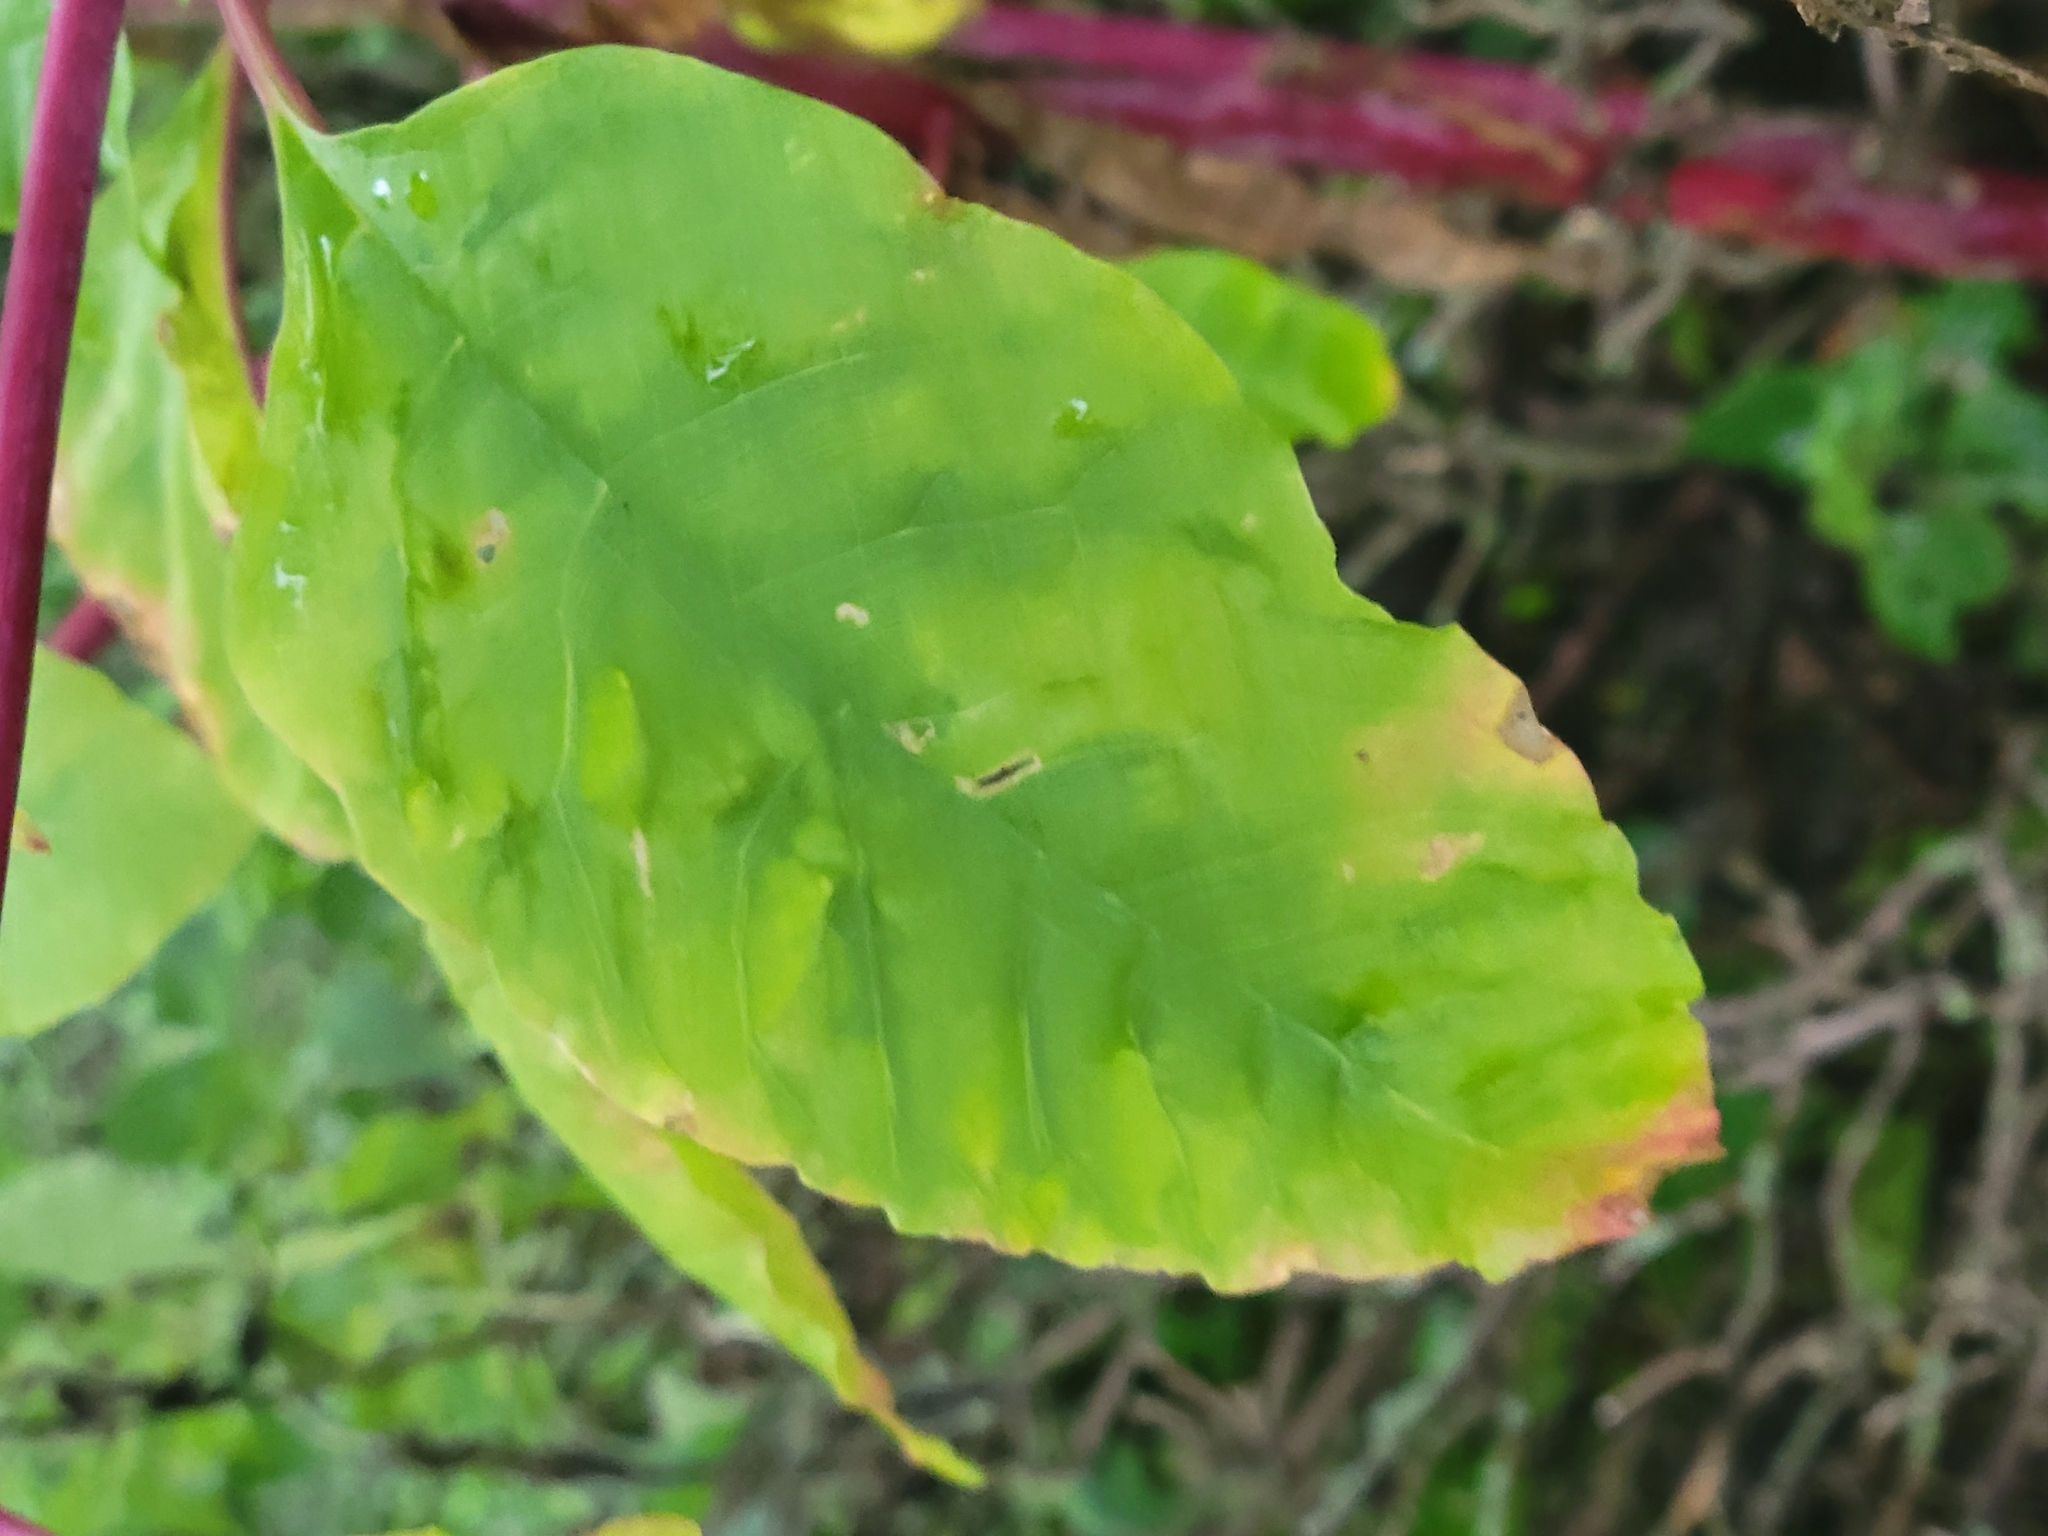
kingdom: Plantae
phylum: Tracheophyta
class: Magnoliopsida
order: Caryophyllales
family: Phytolaccaceae
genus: Phytolacca
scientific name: Phytolacca americana
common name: American pokeweed
